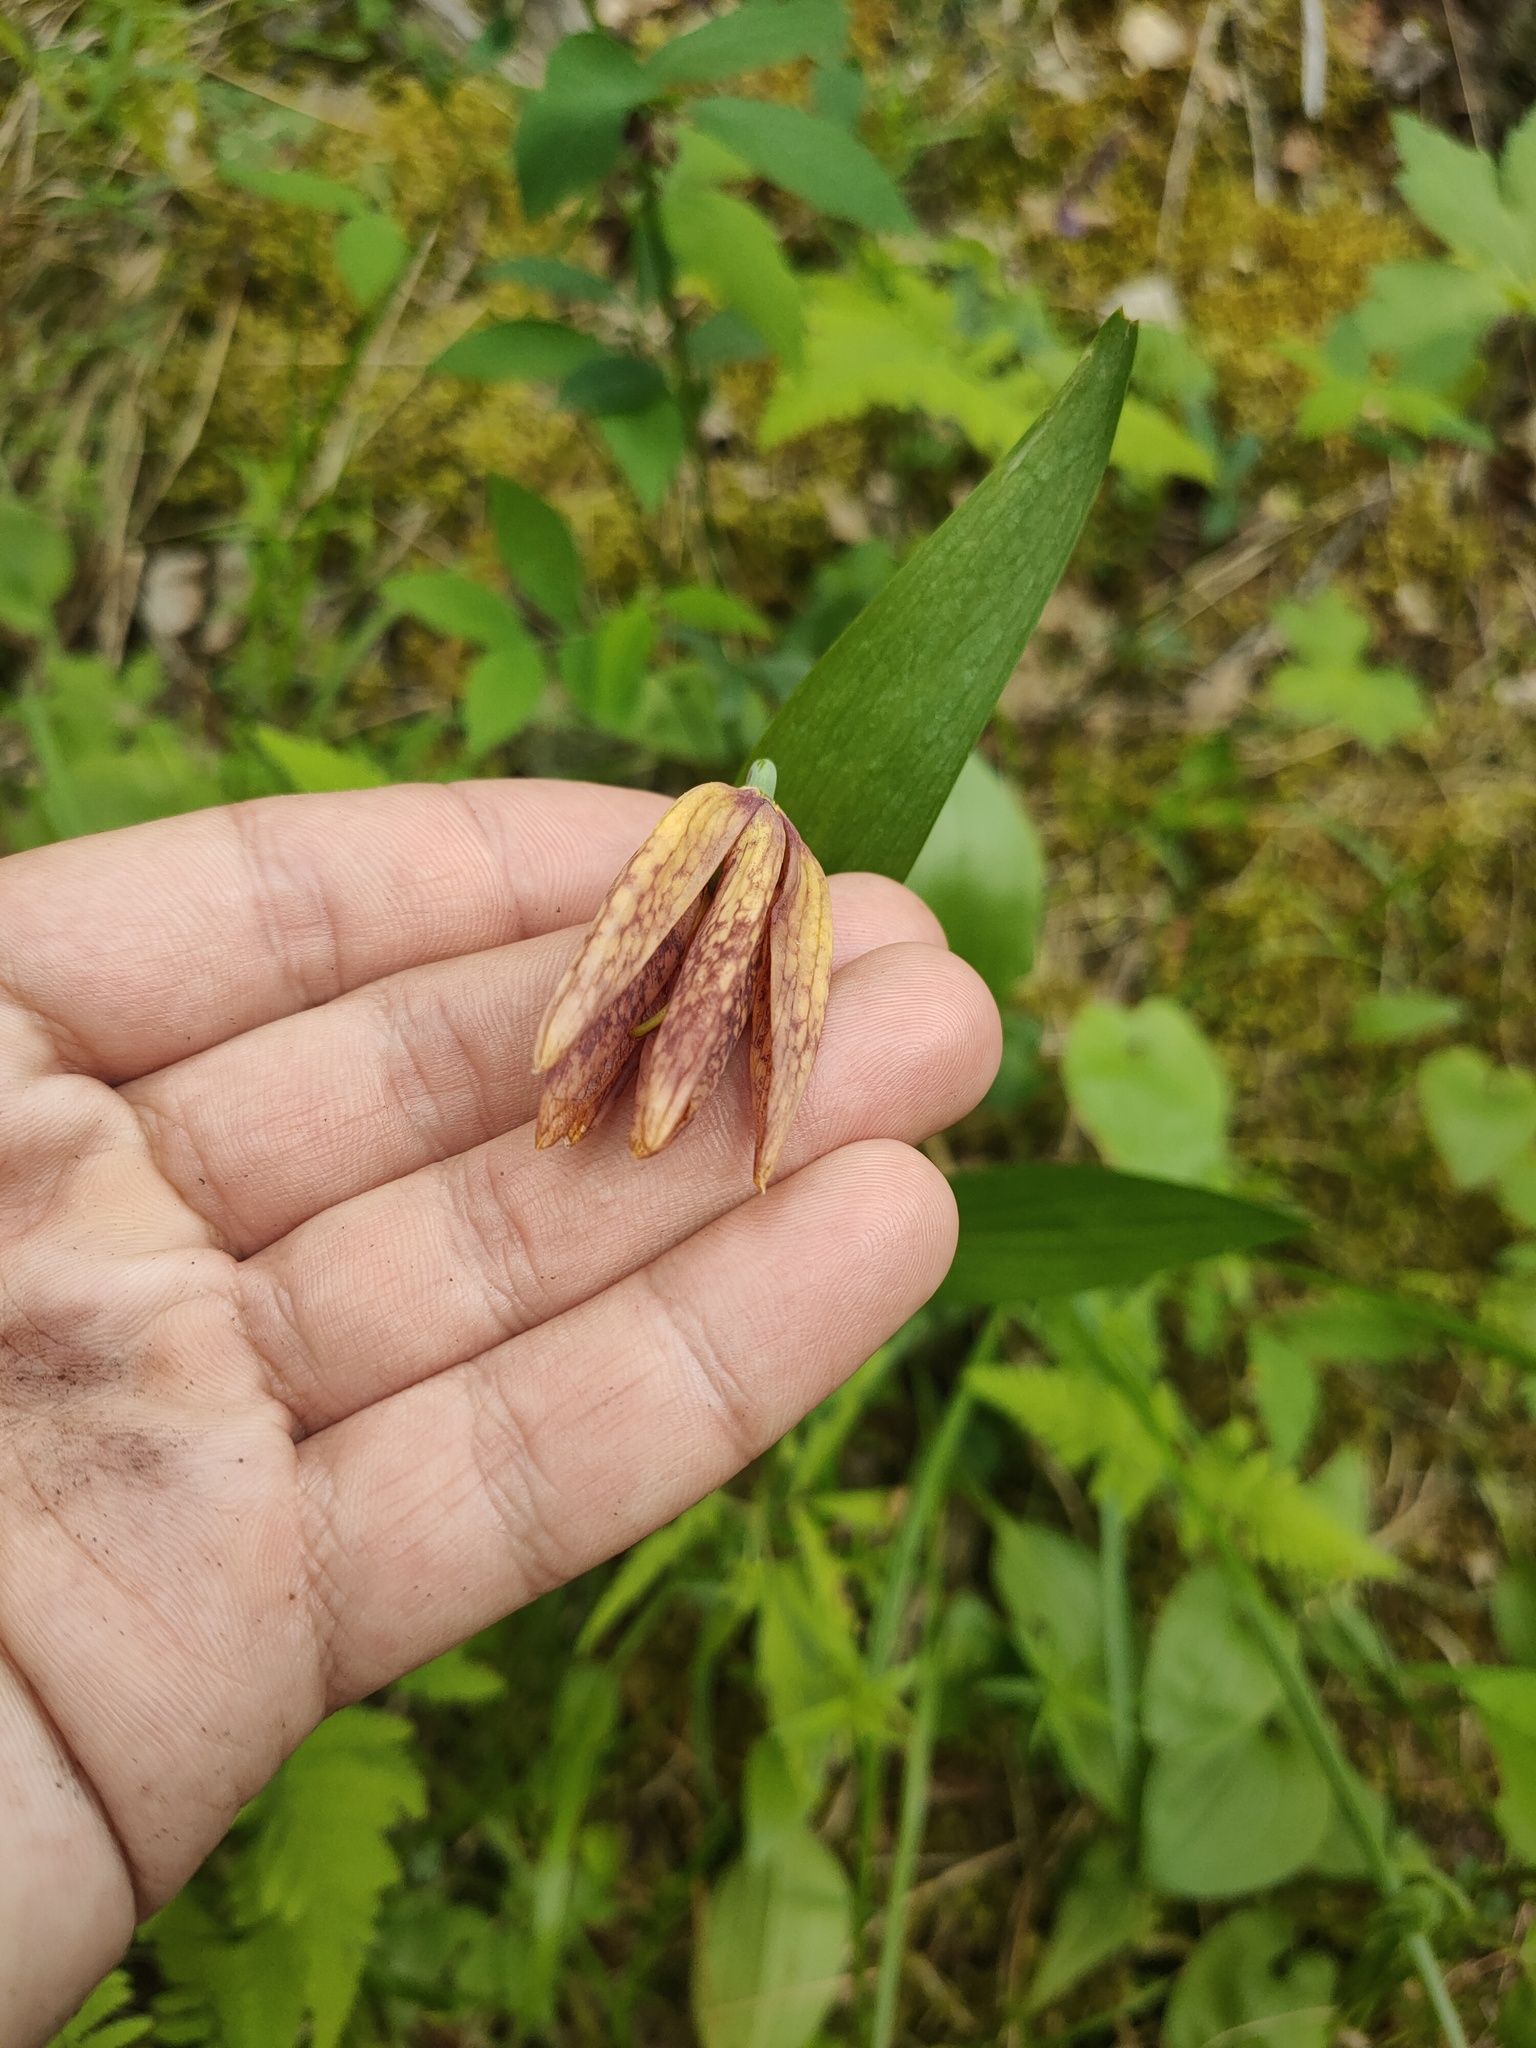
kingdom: Plantae
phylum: Tracheophyta
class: Liliopsida
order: Liliales
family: Liliaceae
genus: Fritillaria
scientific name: Fritillaria dagana
